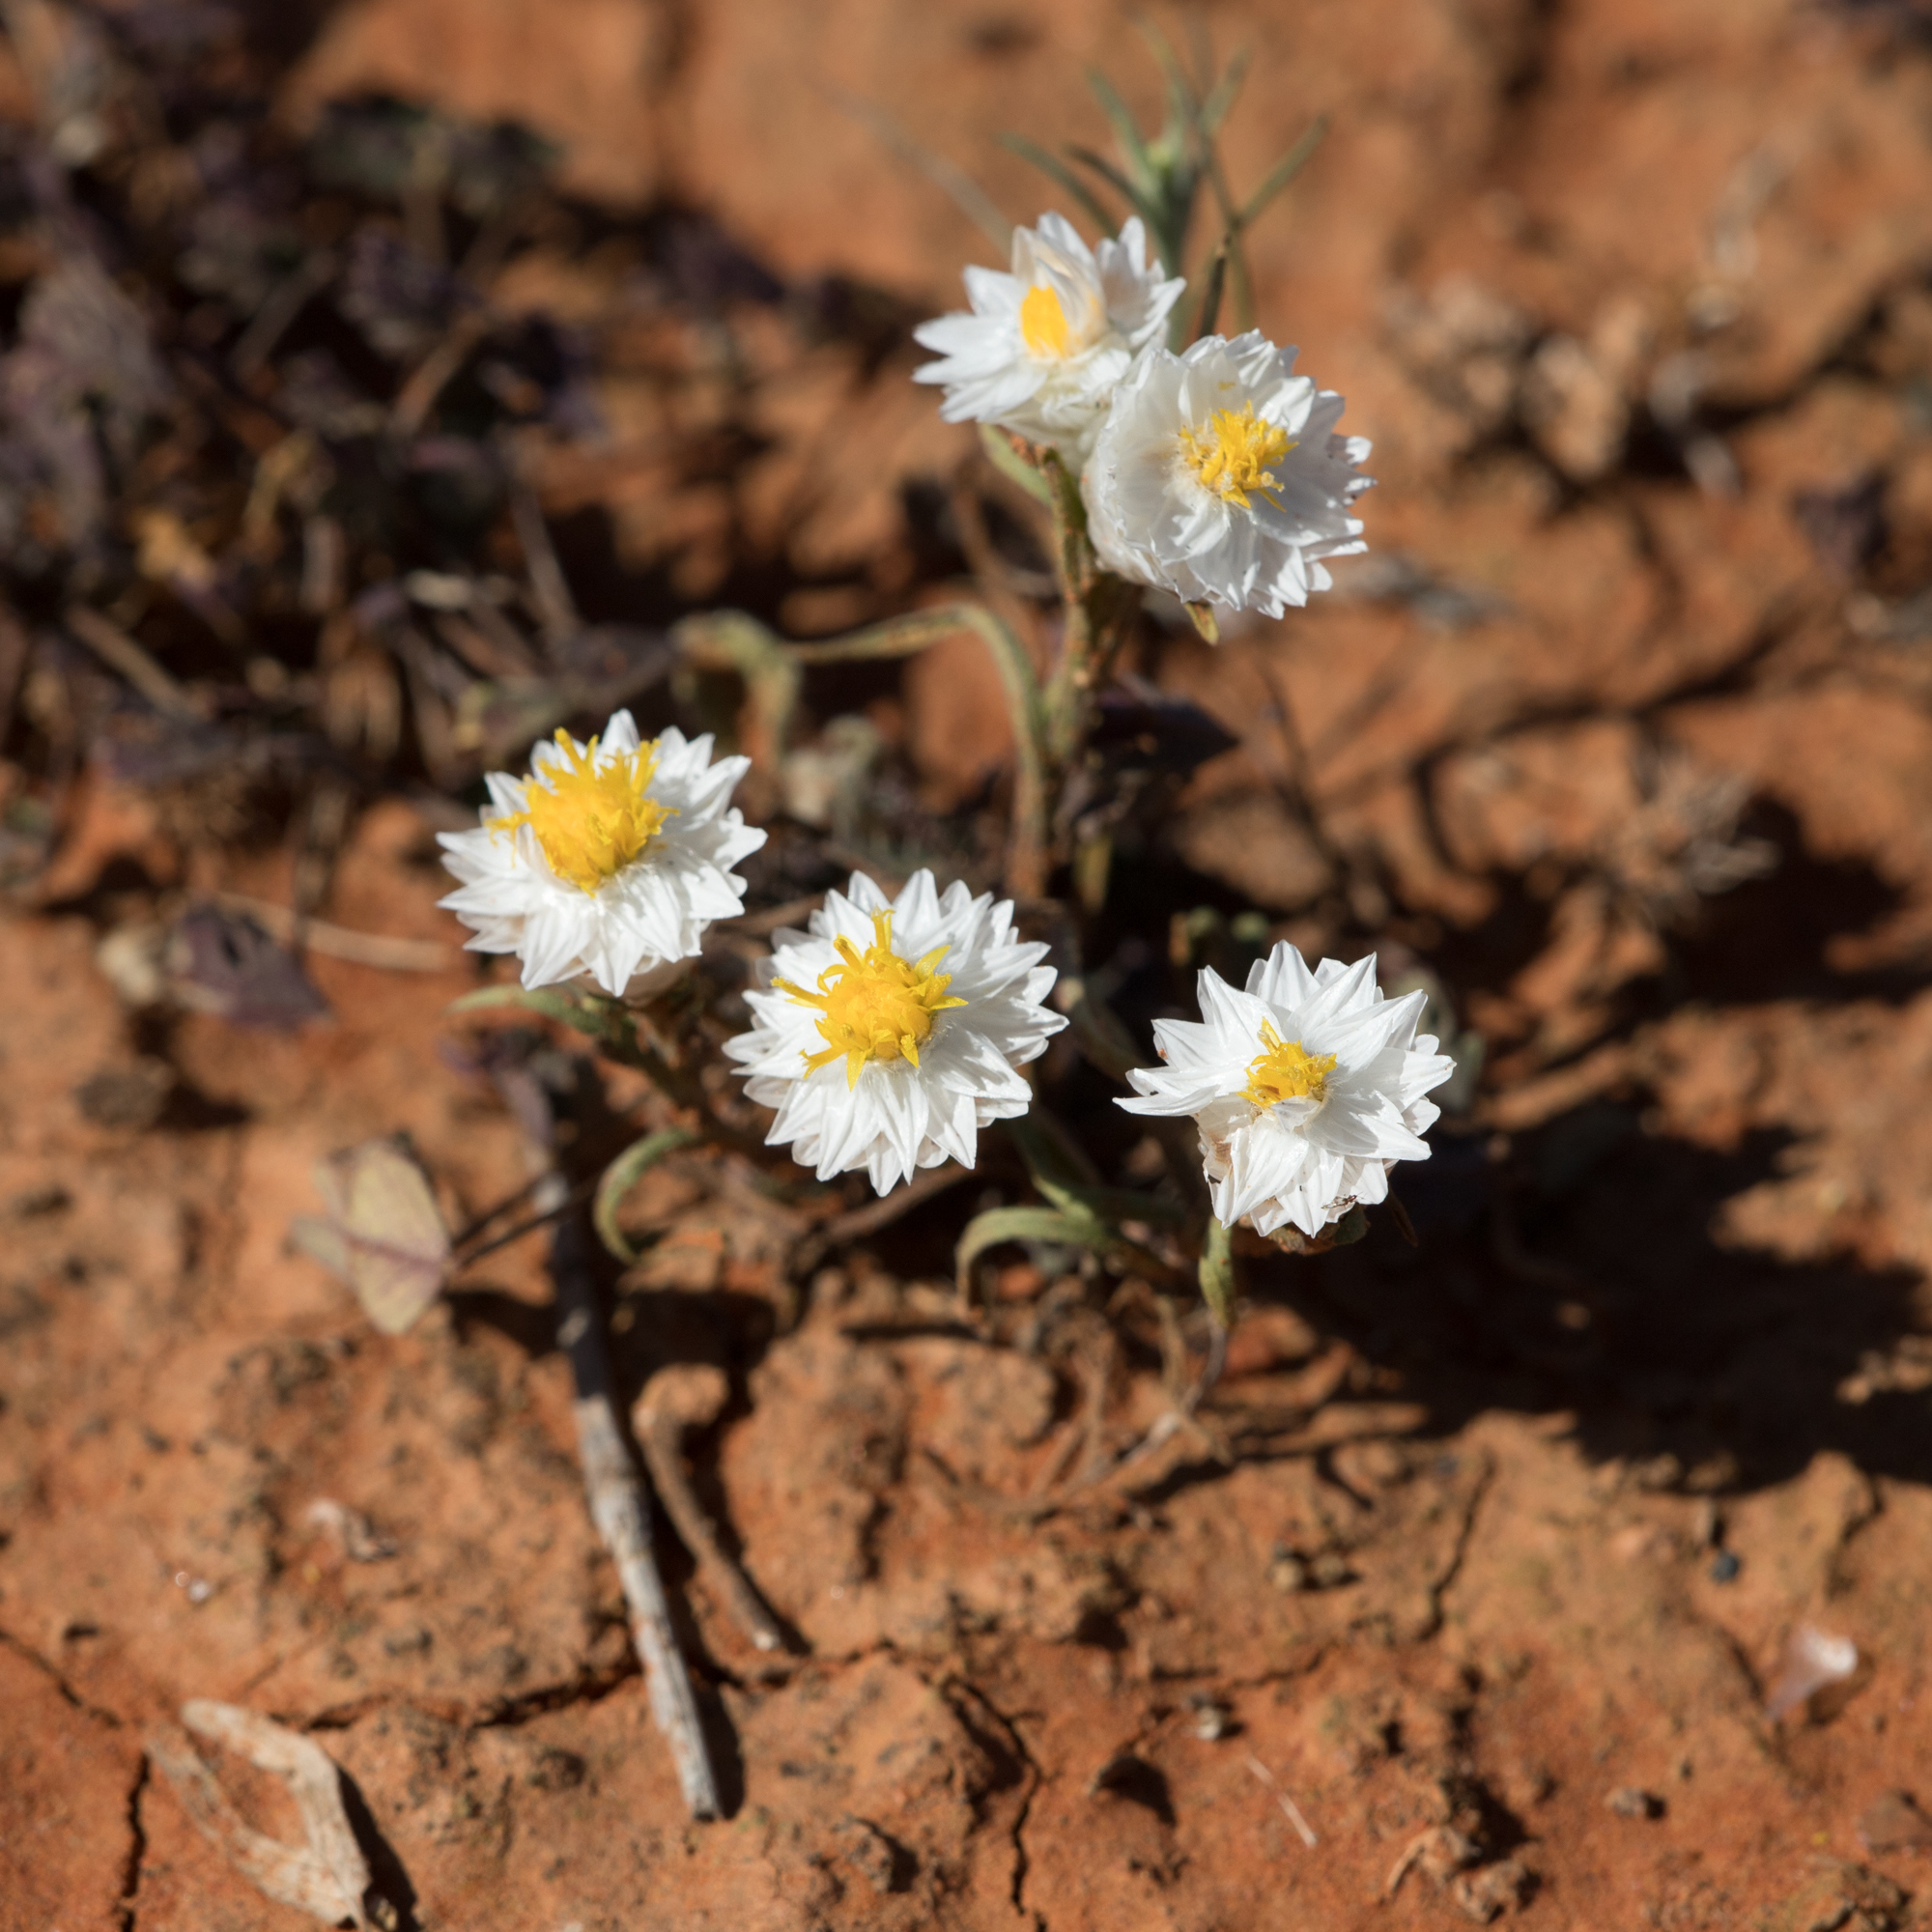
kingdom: Plantae
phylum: Tracheophyta
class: Magnoliopsida
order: Asterales
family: Asteraceae
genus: Rhodanthe
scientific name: Rhodanthe floribunda
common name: Flowery sunray
